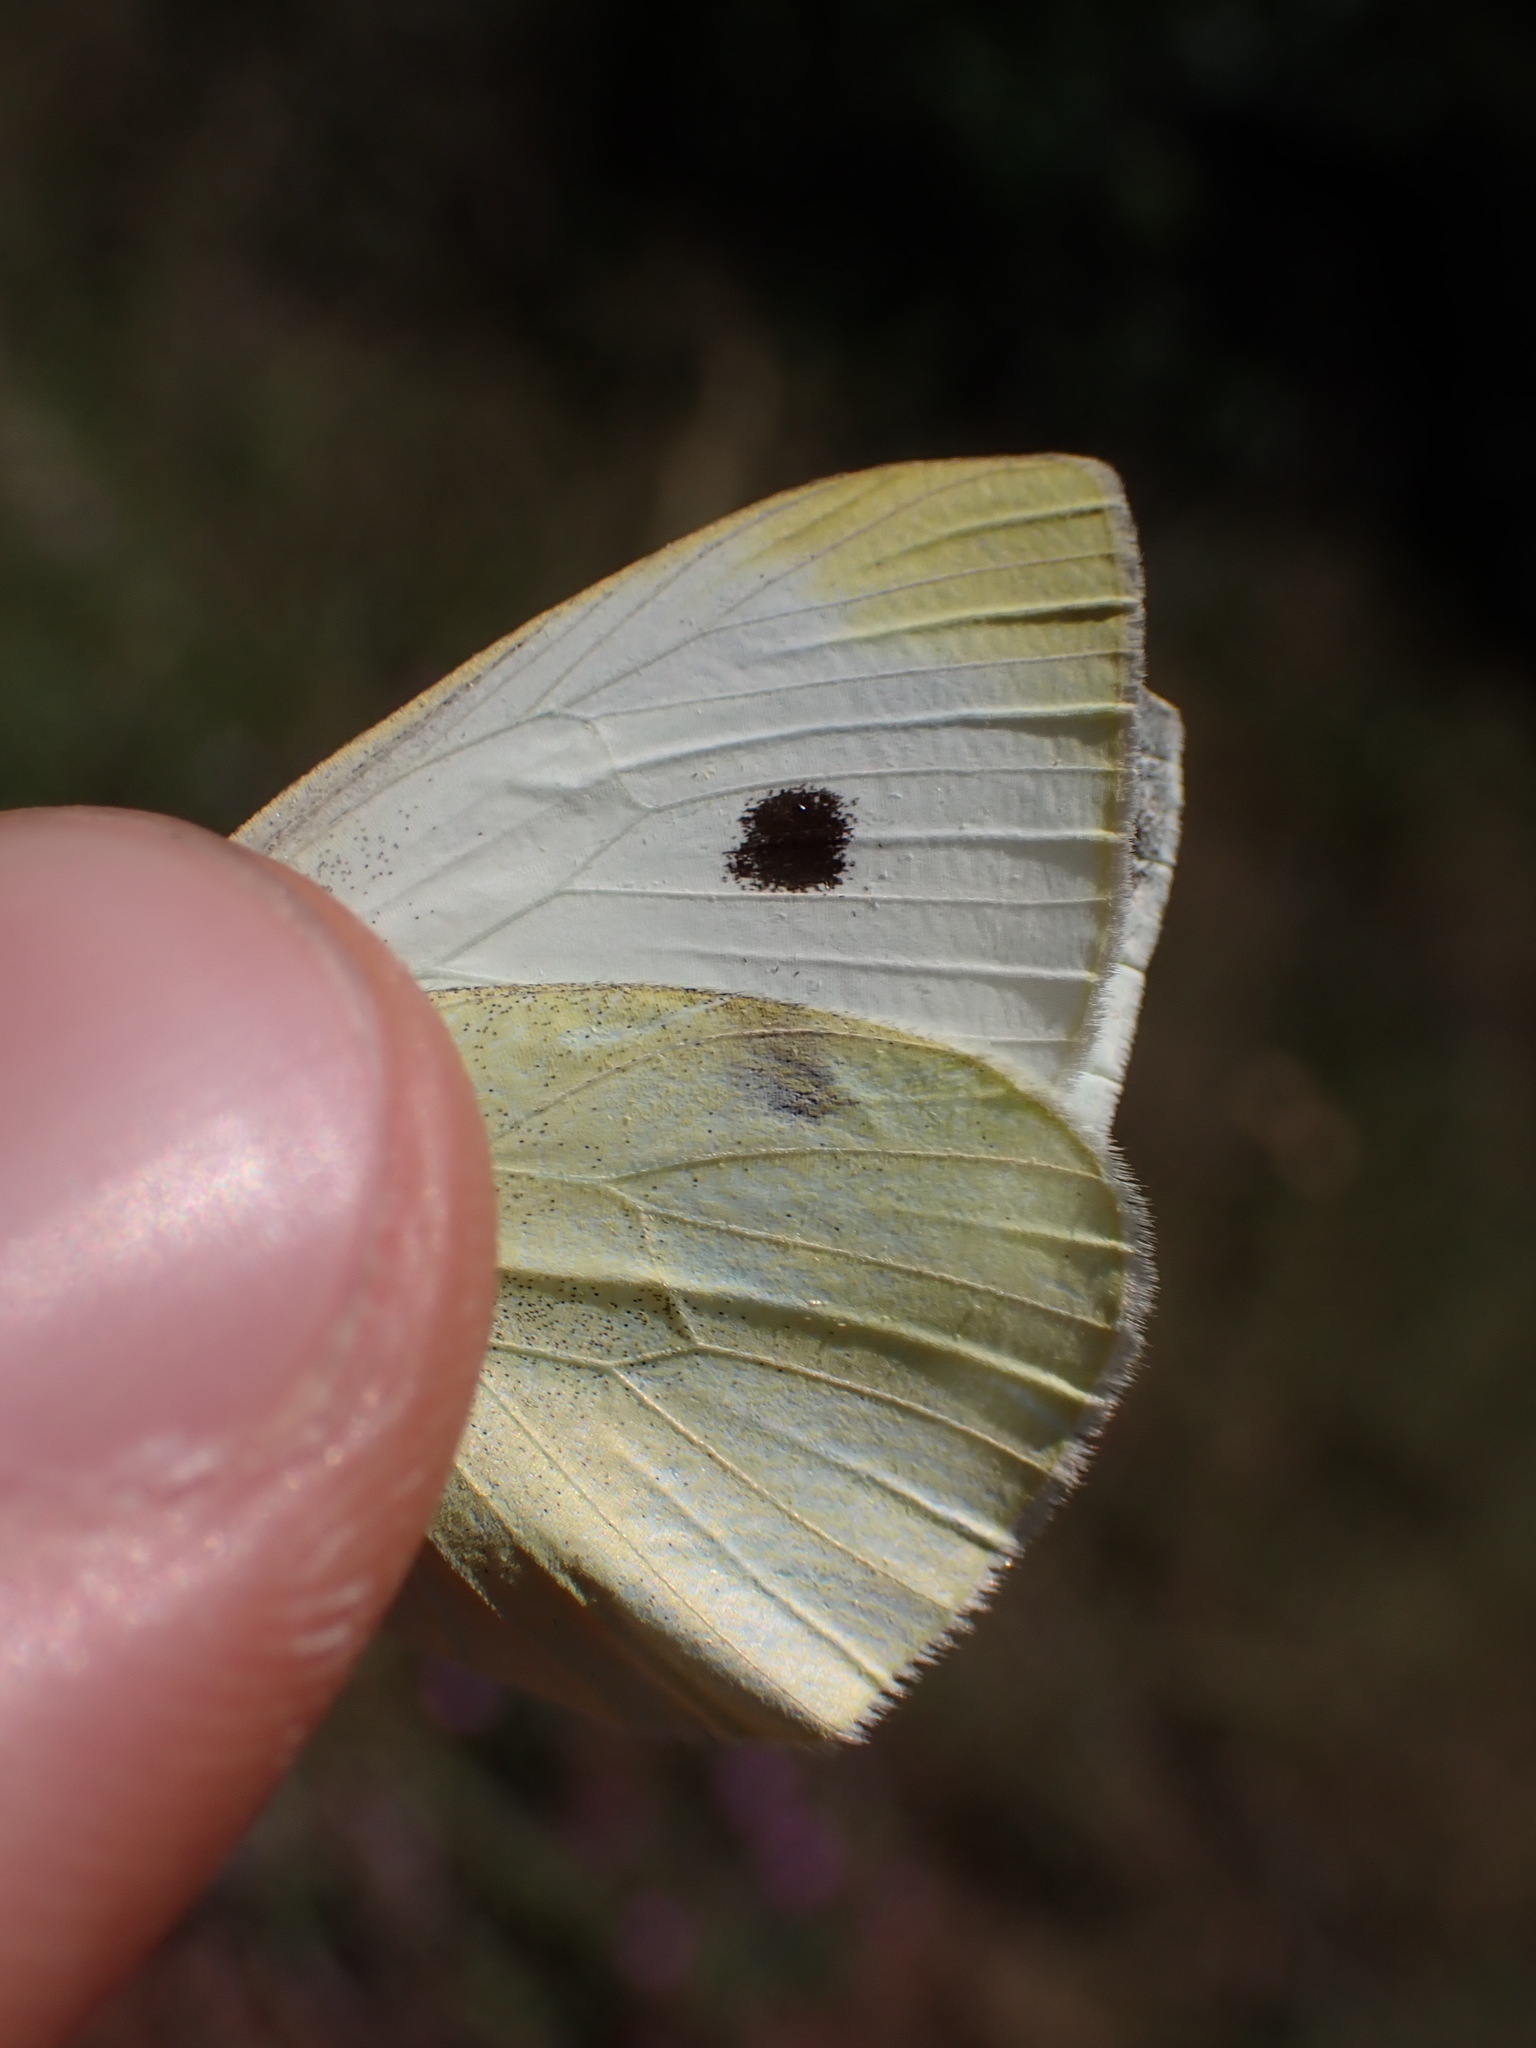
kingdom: Animalia
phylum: Arthropoda
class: Insecta
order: Lepidoptera
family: Pieridae
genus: Pieris
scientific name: Pieris rapae
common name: Small white
